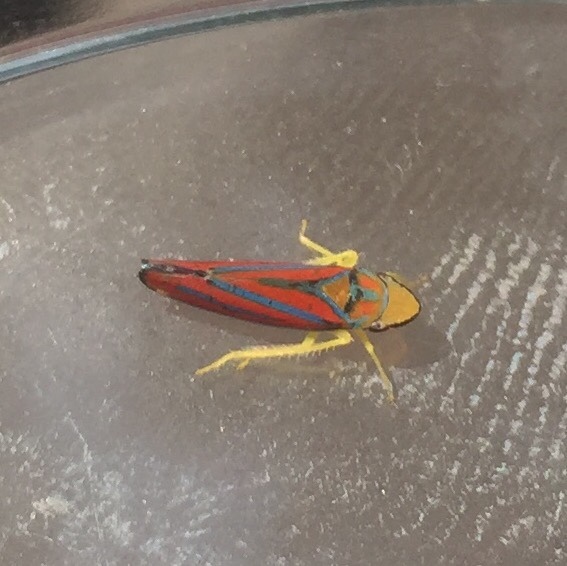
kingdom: Animalia
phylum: Arthropoda
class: Insecta
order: Hemiptera
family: Cicadellidae
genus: Graphocephala
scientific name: Graphocephala coccinea
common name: Candy-striped leafhopper
